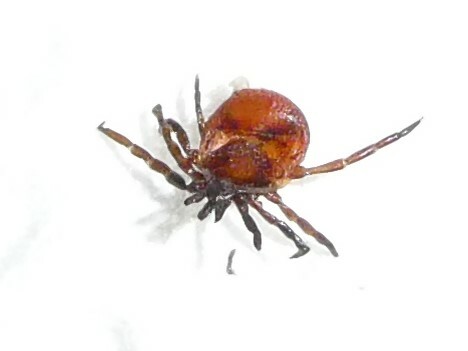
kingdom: Animalia
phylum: Arthropoda
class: Arachnida
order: Ixodida
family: Ixodidae
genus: Ixodes
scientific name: Ixodes scapularis
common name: Black legged tick
